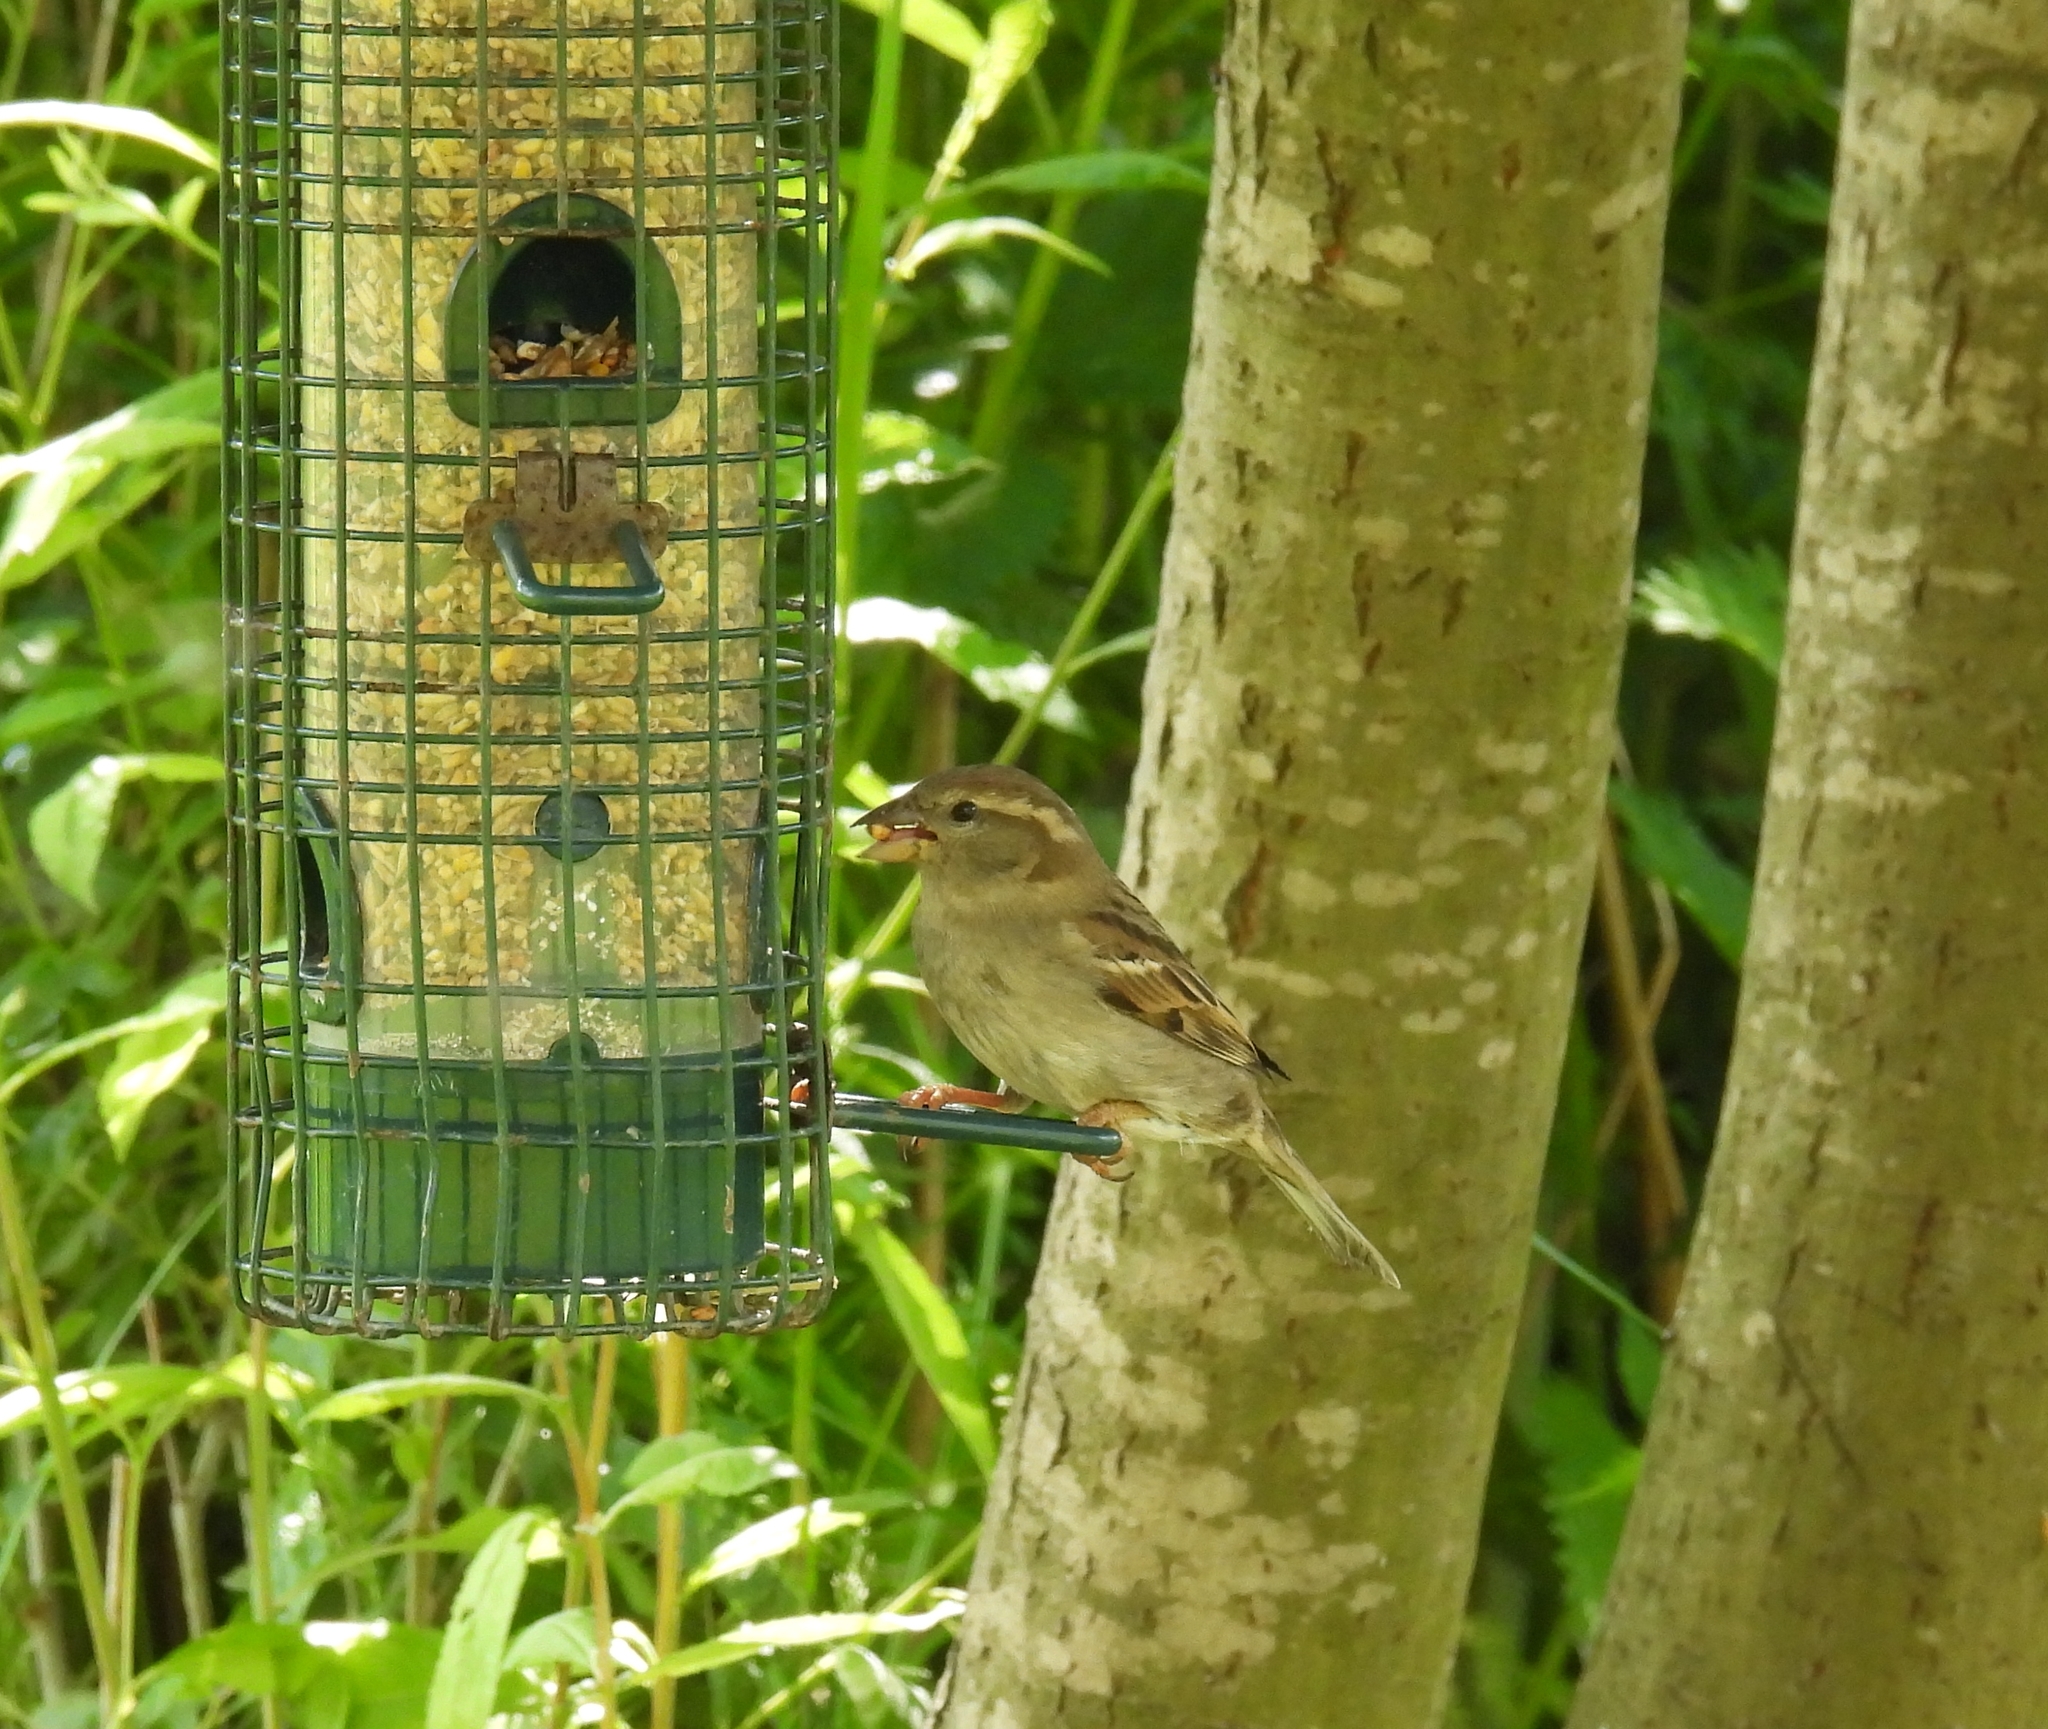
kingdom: Animalia
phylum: Chordata
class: Aves
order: Passeriformes
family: Passeridae
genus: Passer
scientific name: Passer domesticus
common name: House sparrow
